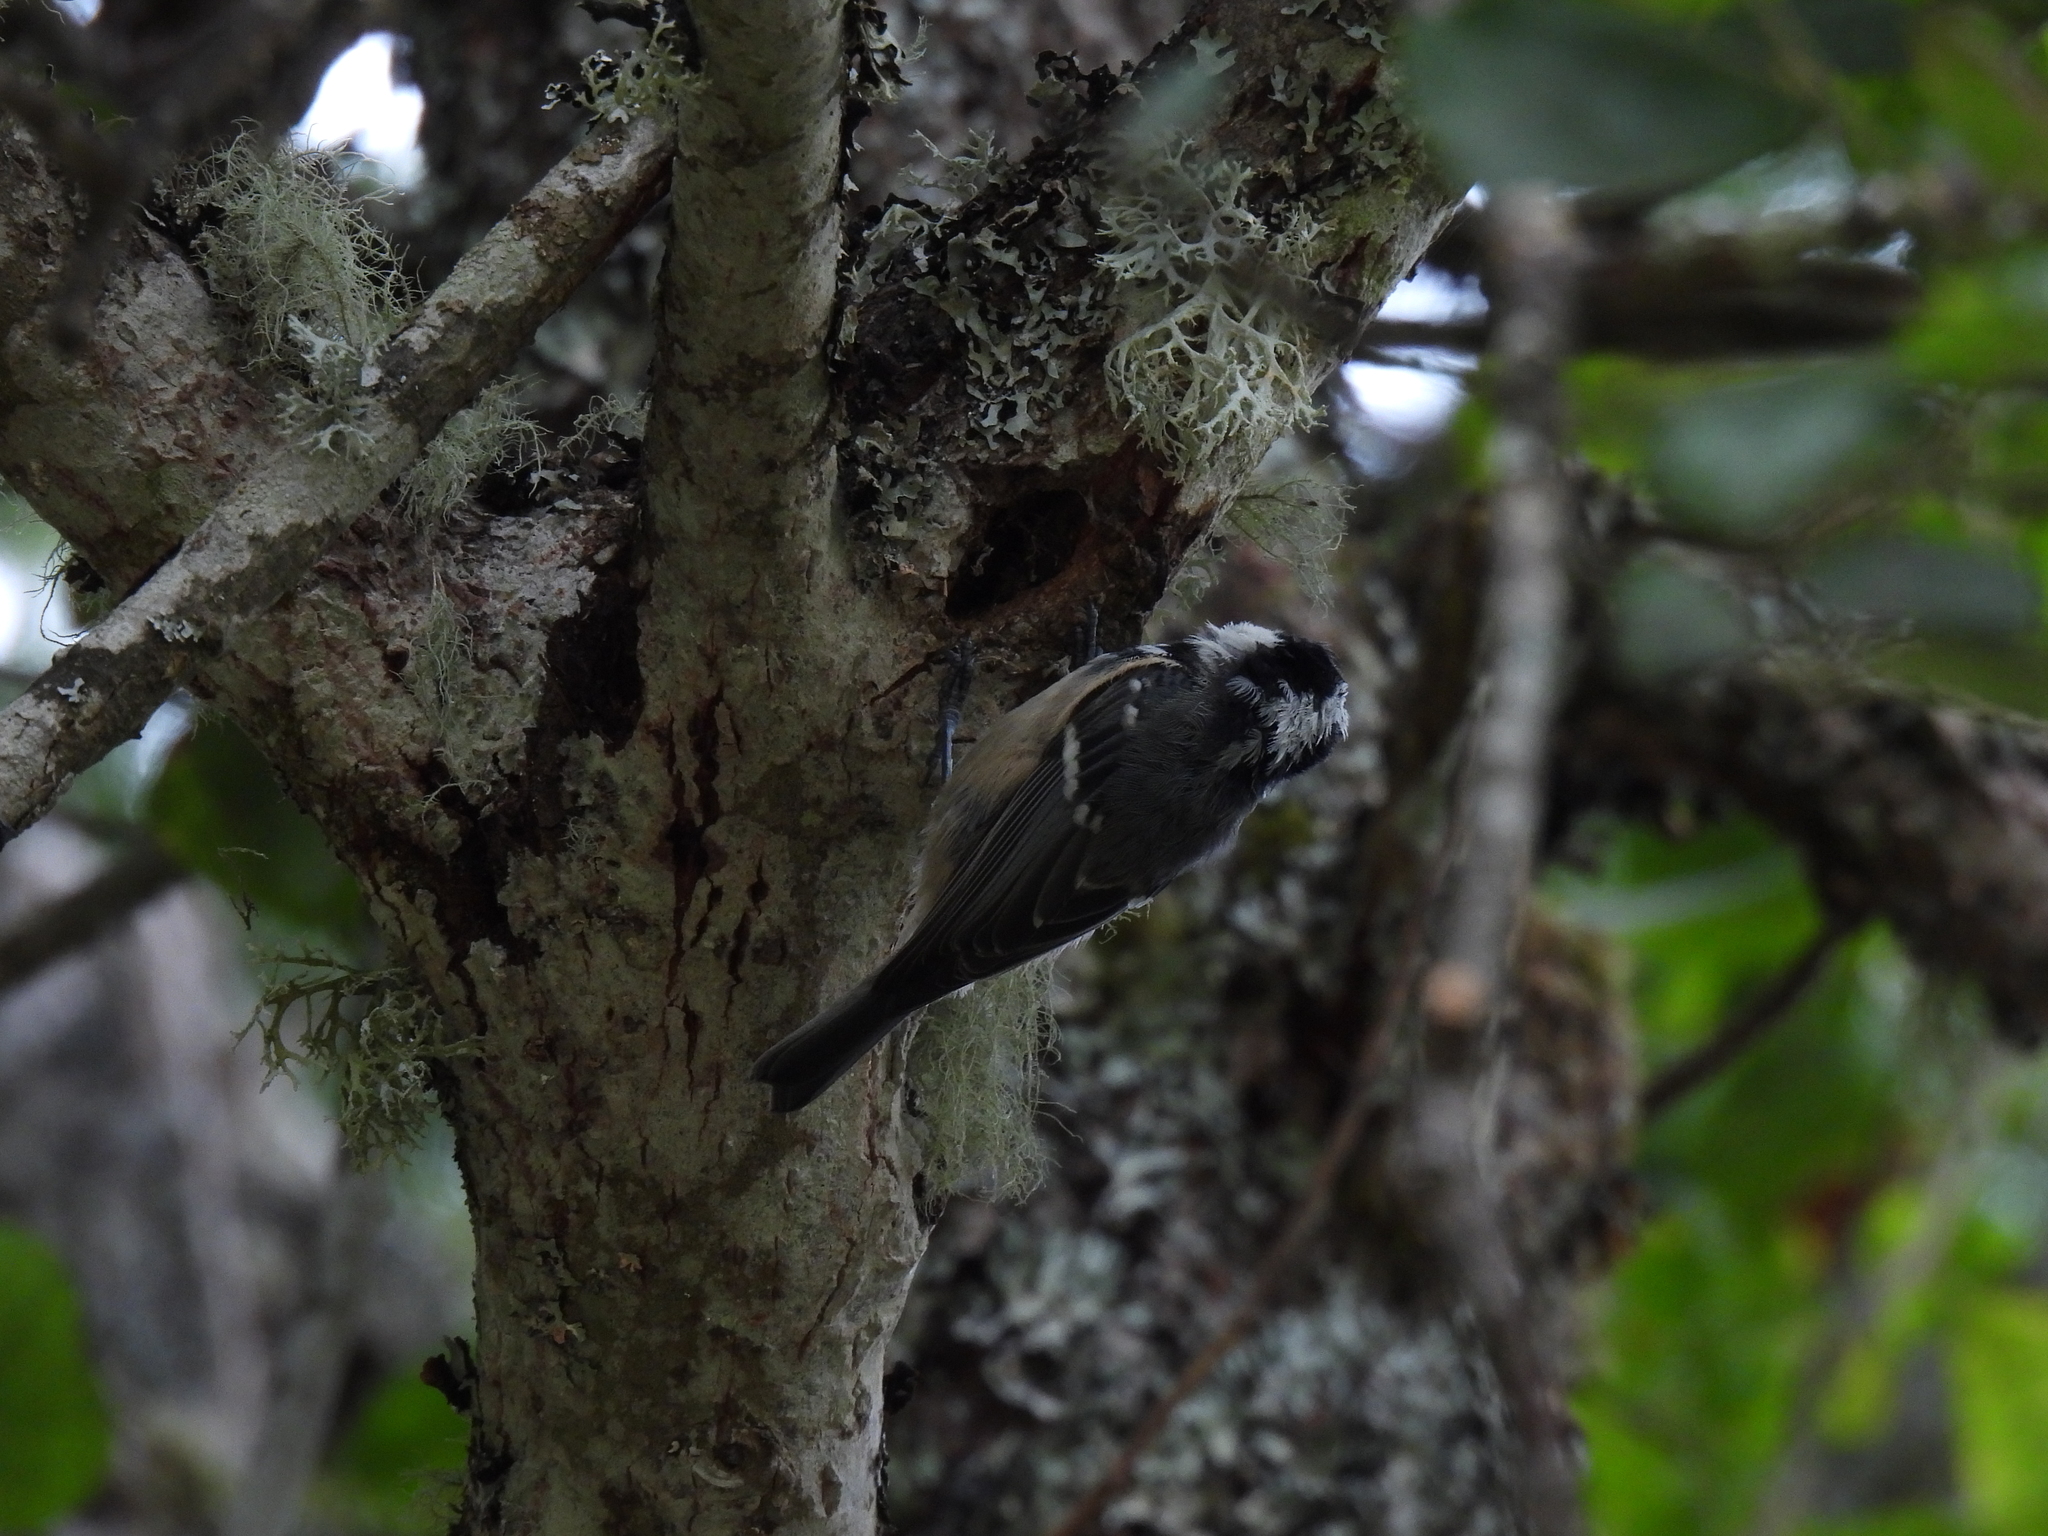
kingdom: Animalia
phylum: Chordata
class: Aves
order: Passeriformes
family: Paridae
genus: Periparus
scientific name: Periparus ater
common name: Coal tit
